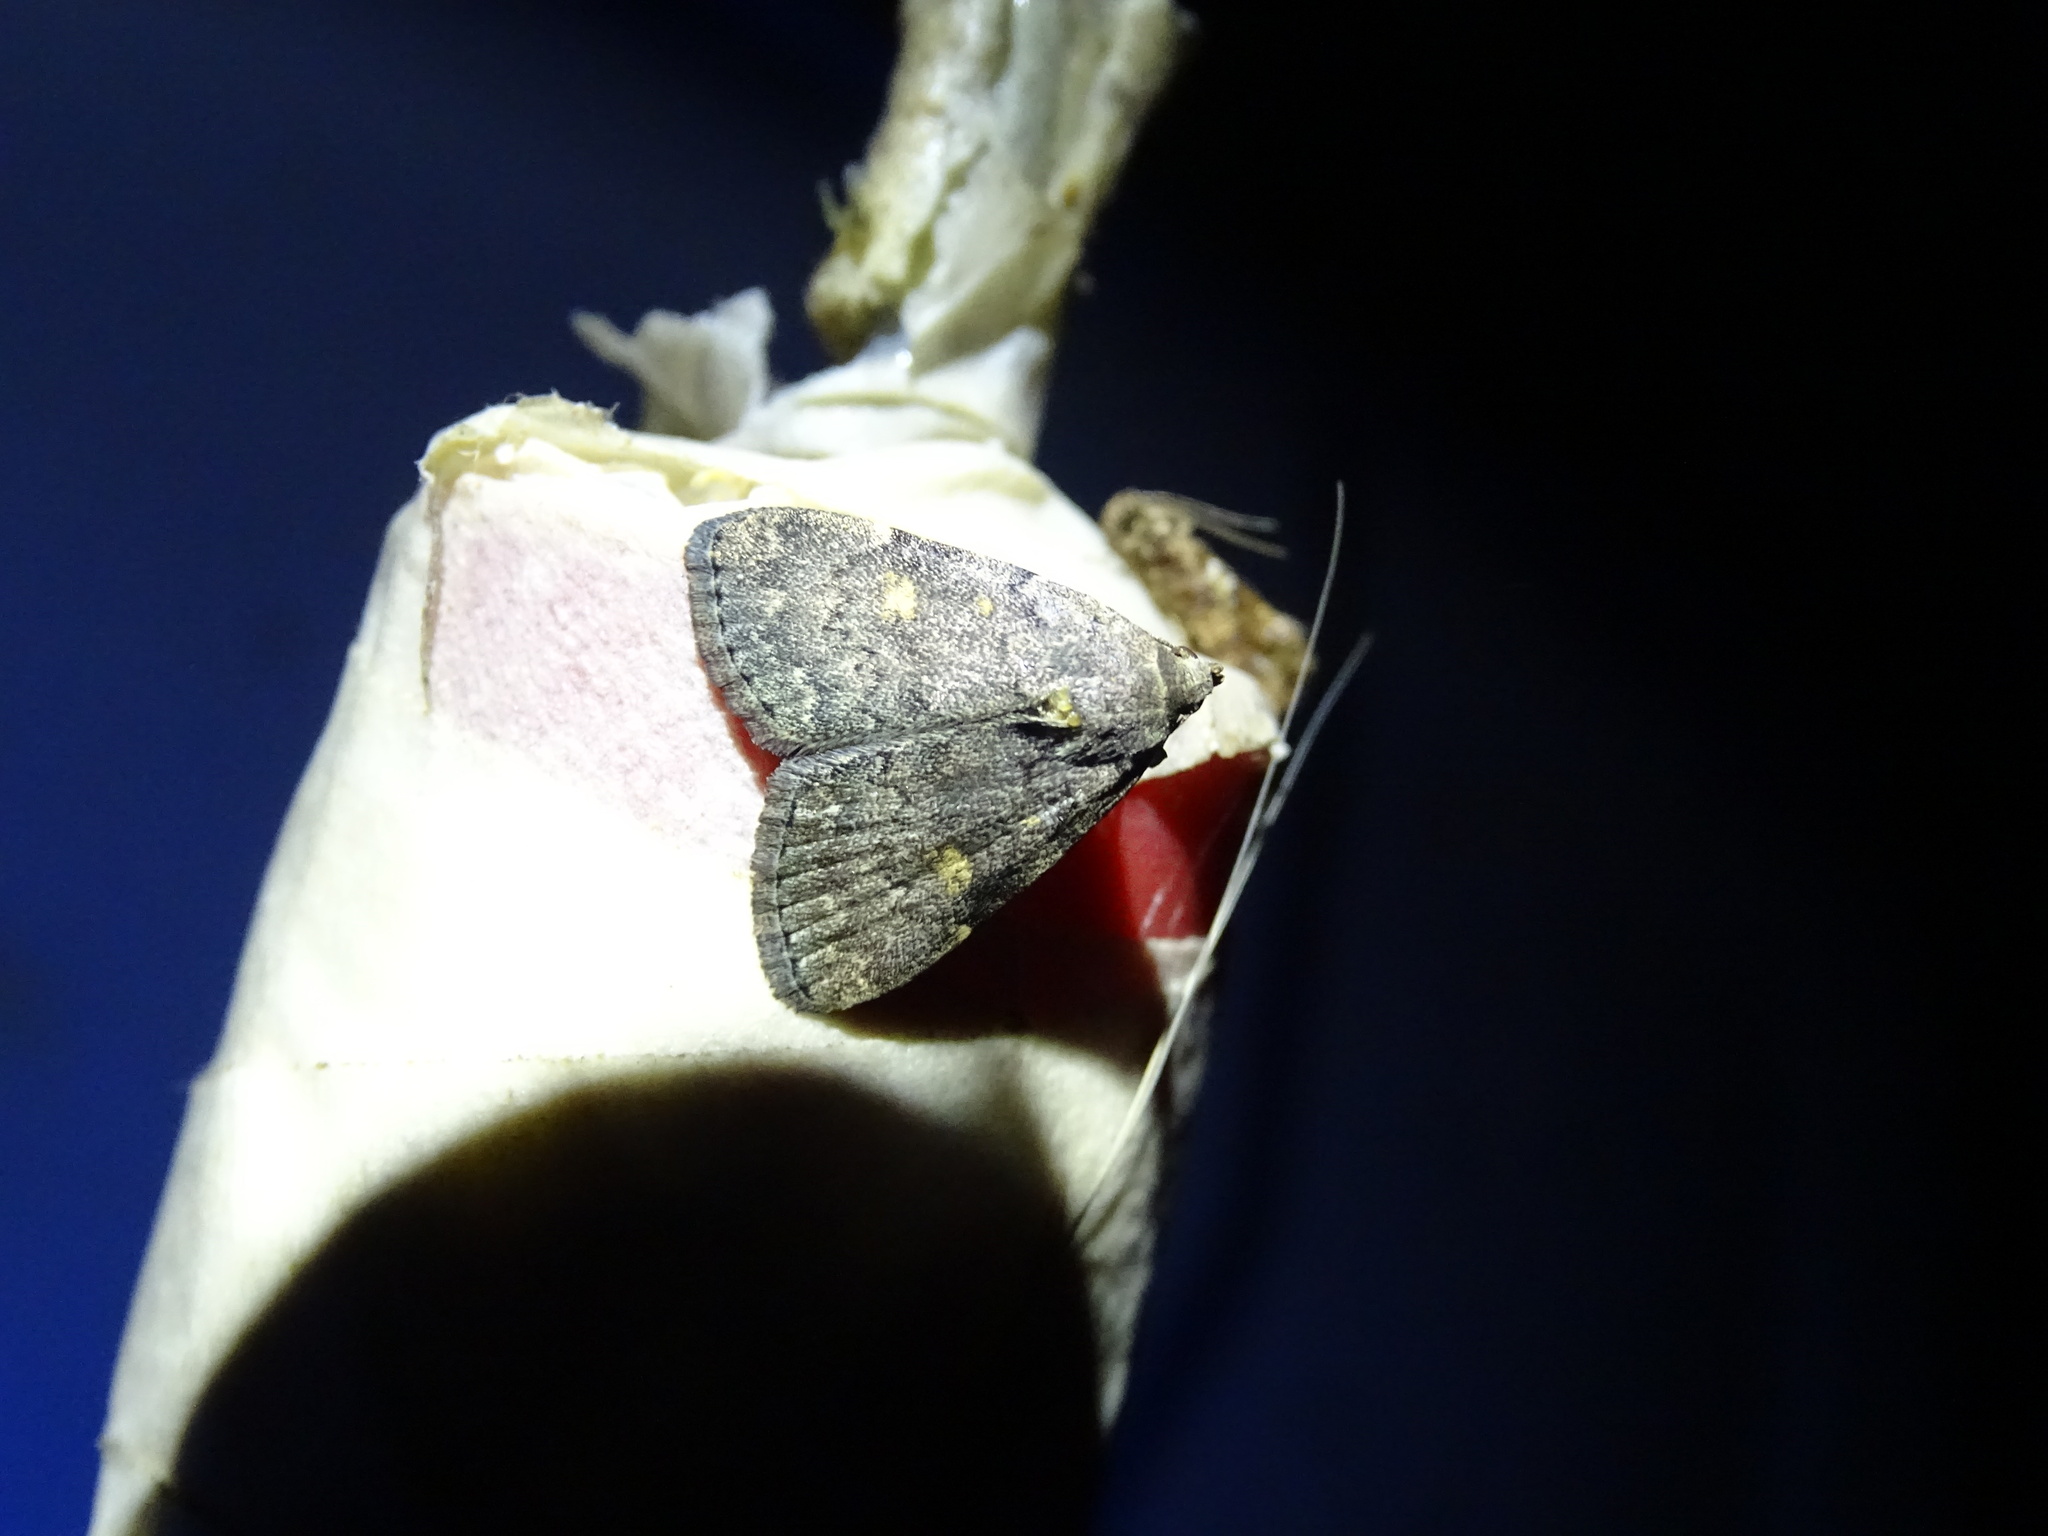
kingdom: Animalia
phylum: Arthropoda
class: Insecta
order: Lepidoptera
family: Erebidae
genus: Idia
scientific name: Idia aemula
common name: Common idia moth
